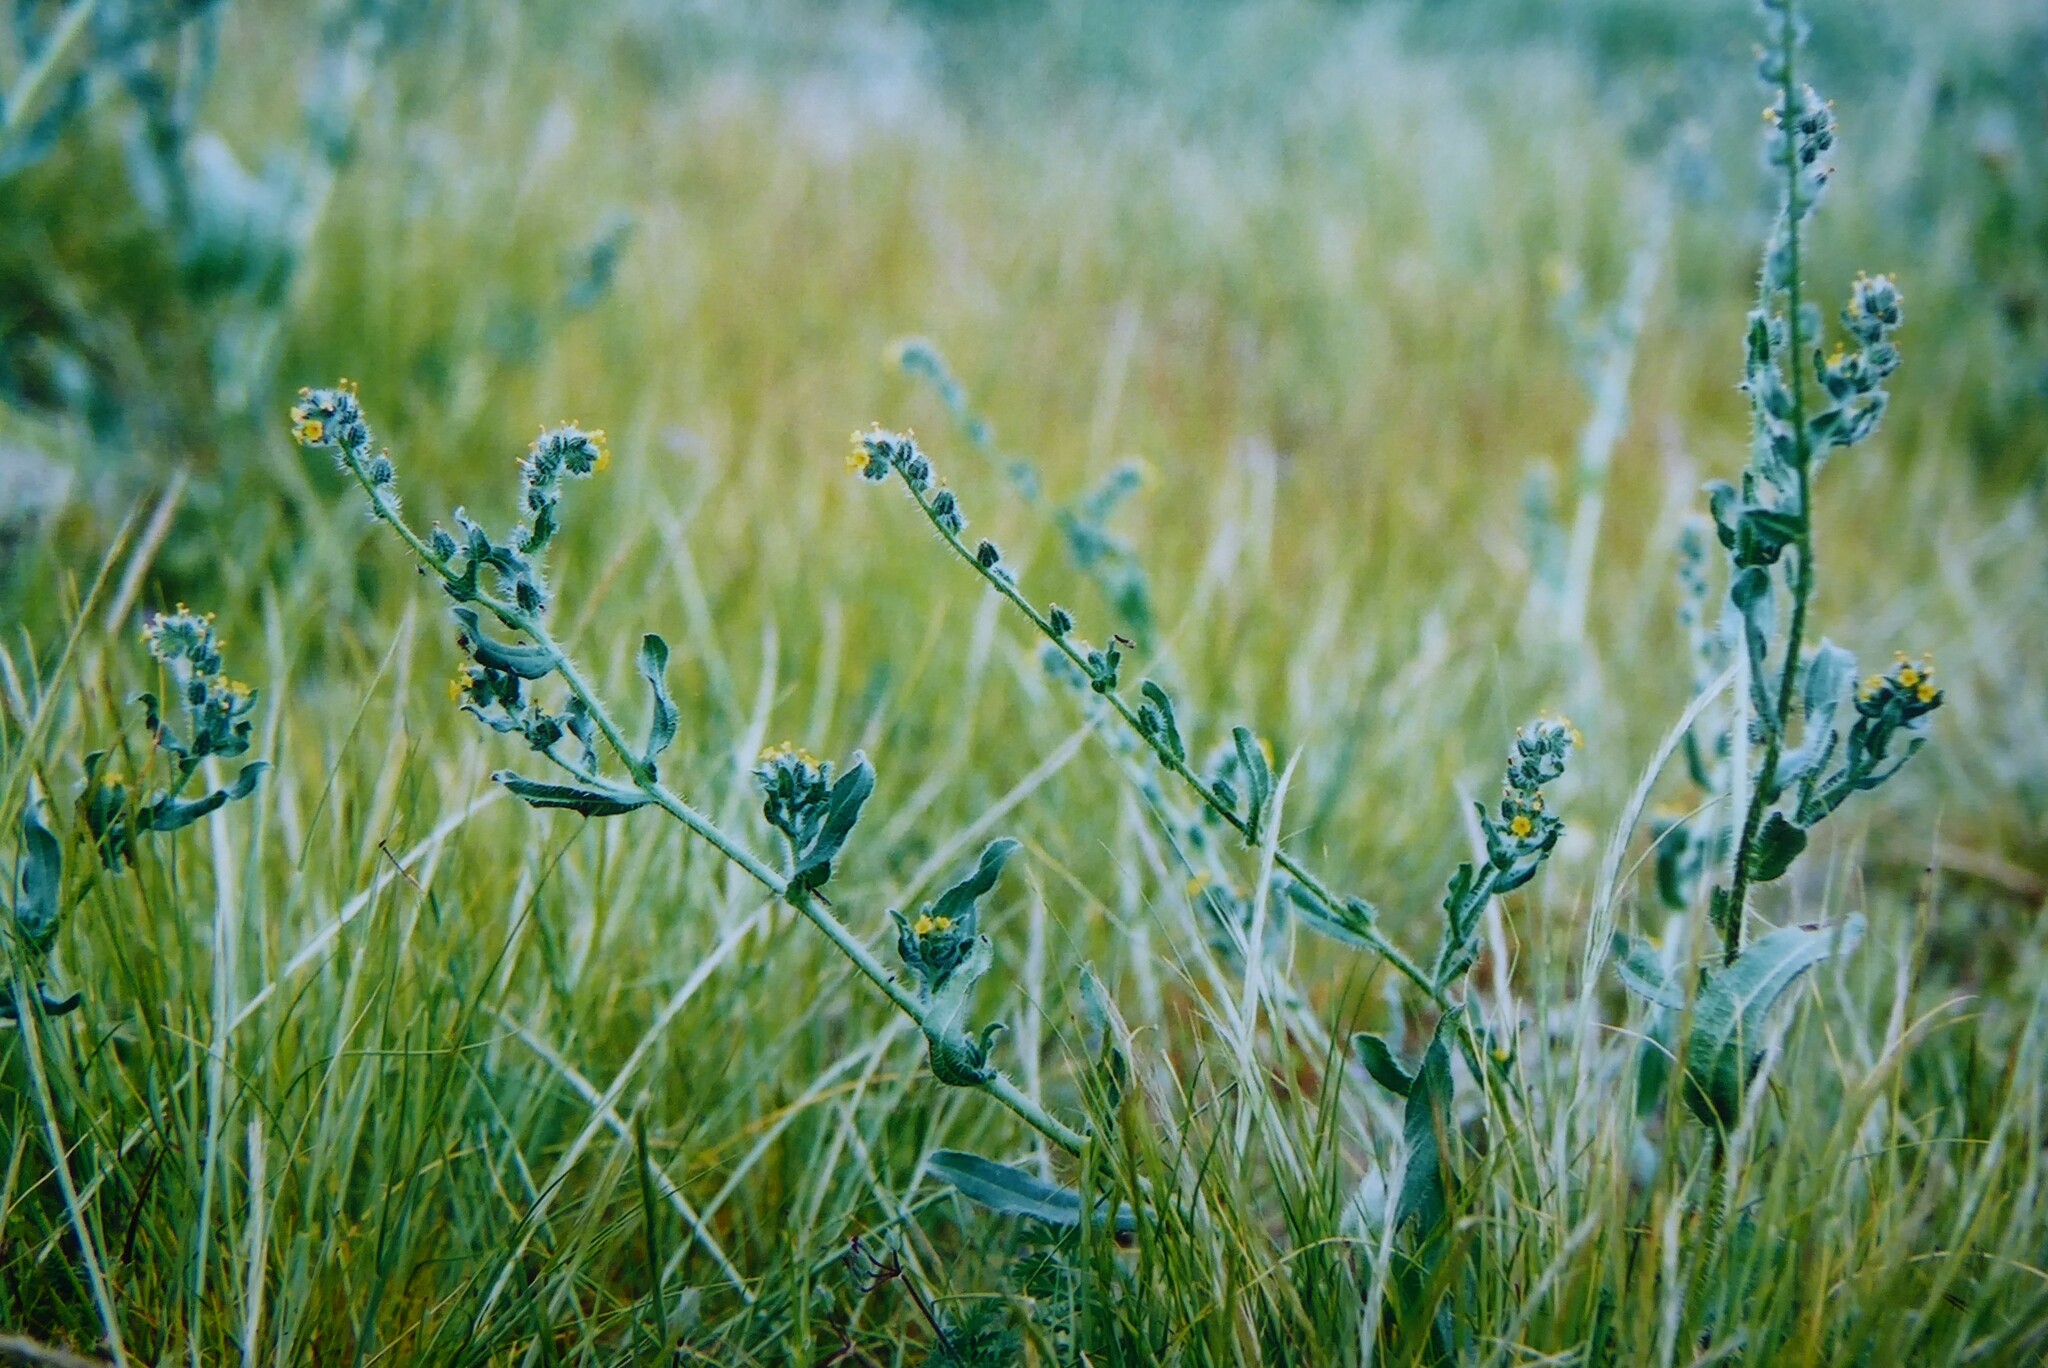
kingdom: Plantae
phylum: Tracheophyta
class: Magnoliopsida
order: Boraginales
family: Boraginaceae
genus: Amsinckia
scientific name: Amsinckia calycina
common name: Hairy fiddleneck
